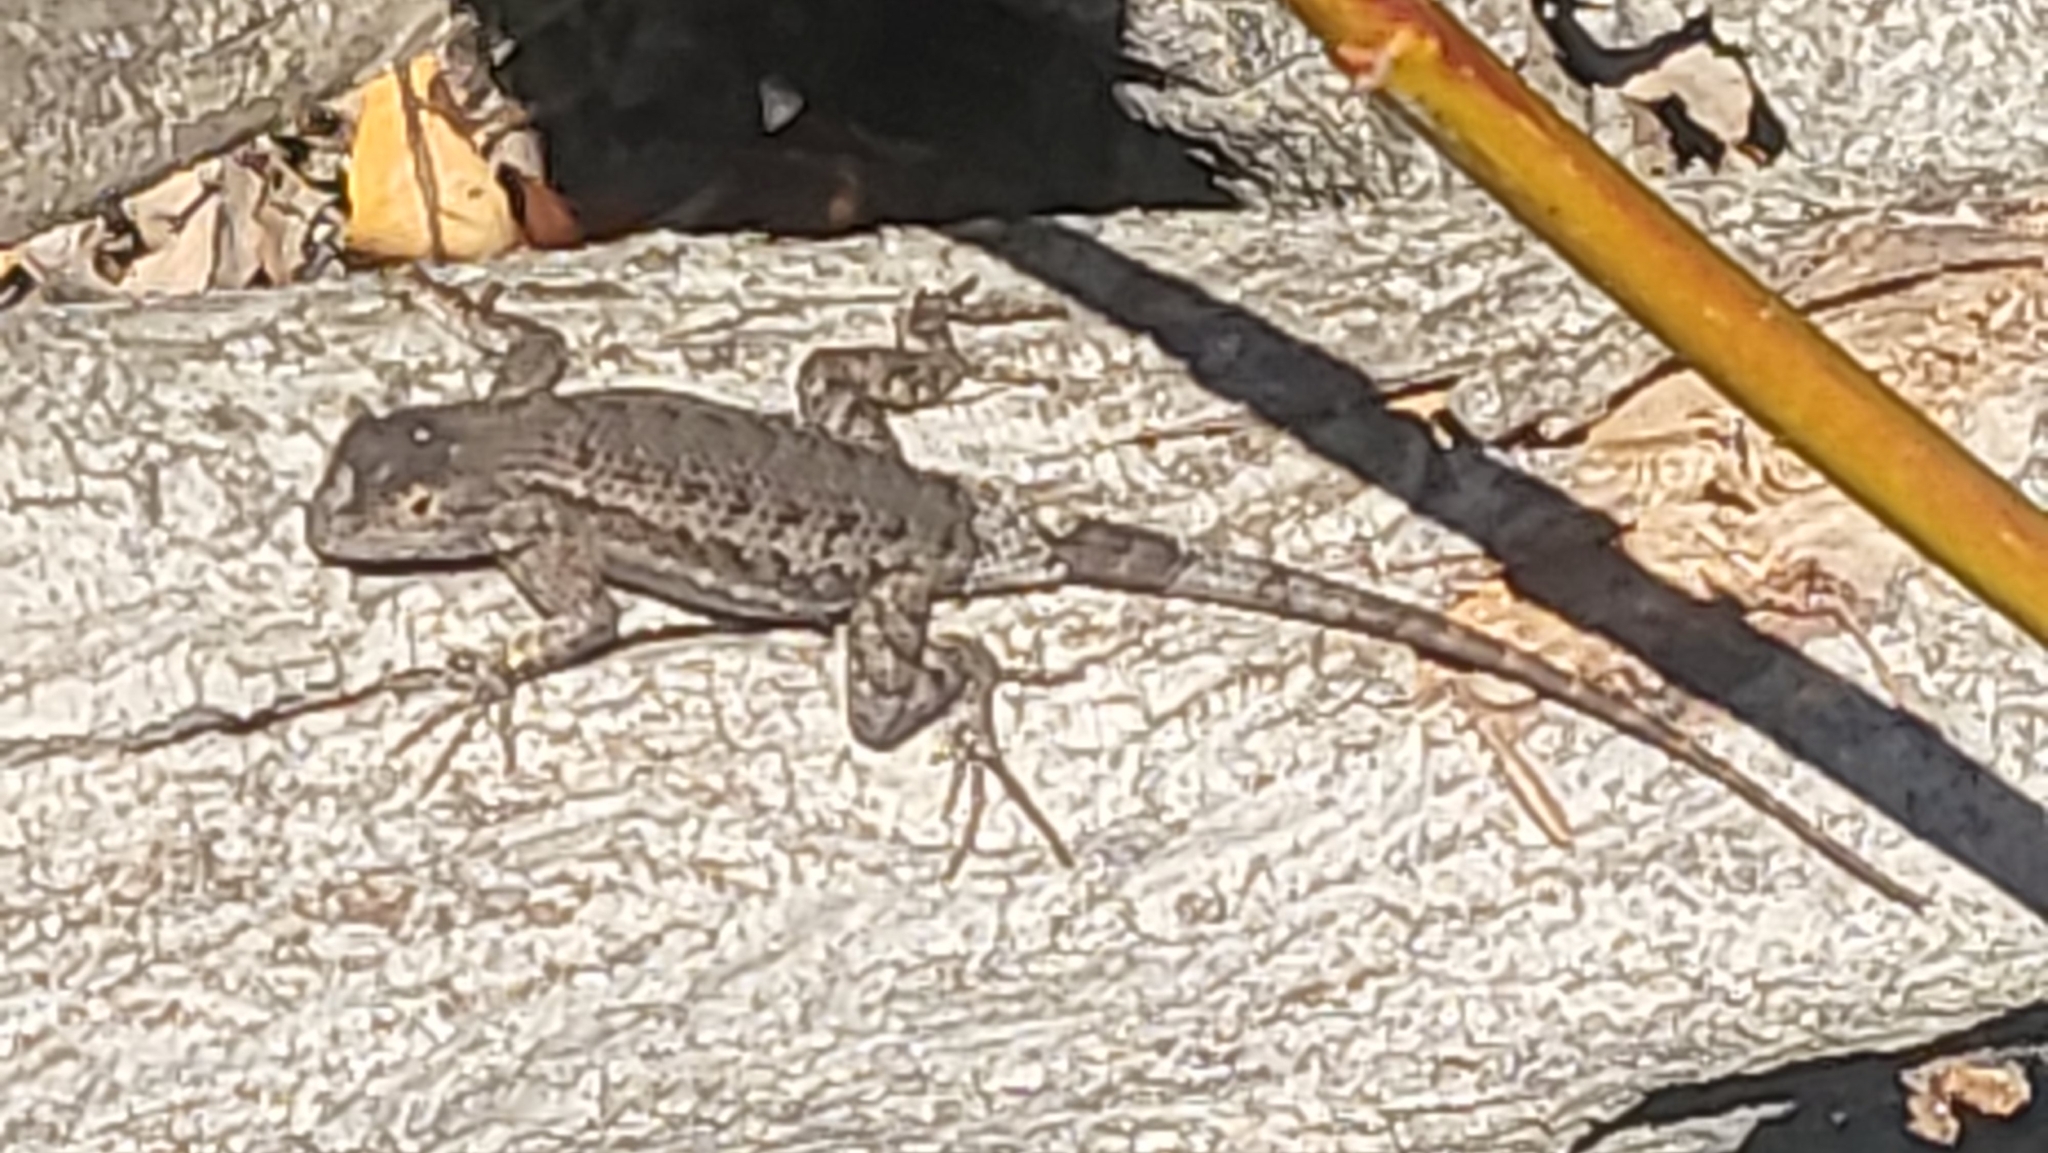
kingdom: Animalia
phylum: Chordata
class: Squamata
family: Phrynosomatidae
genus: Sceloporus
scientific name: Sceloporus occidentalis
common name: Western fence lizard
